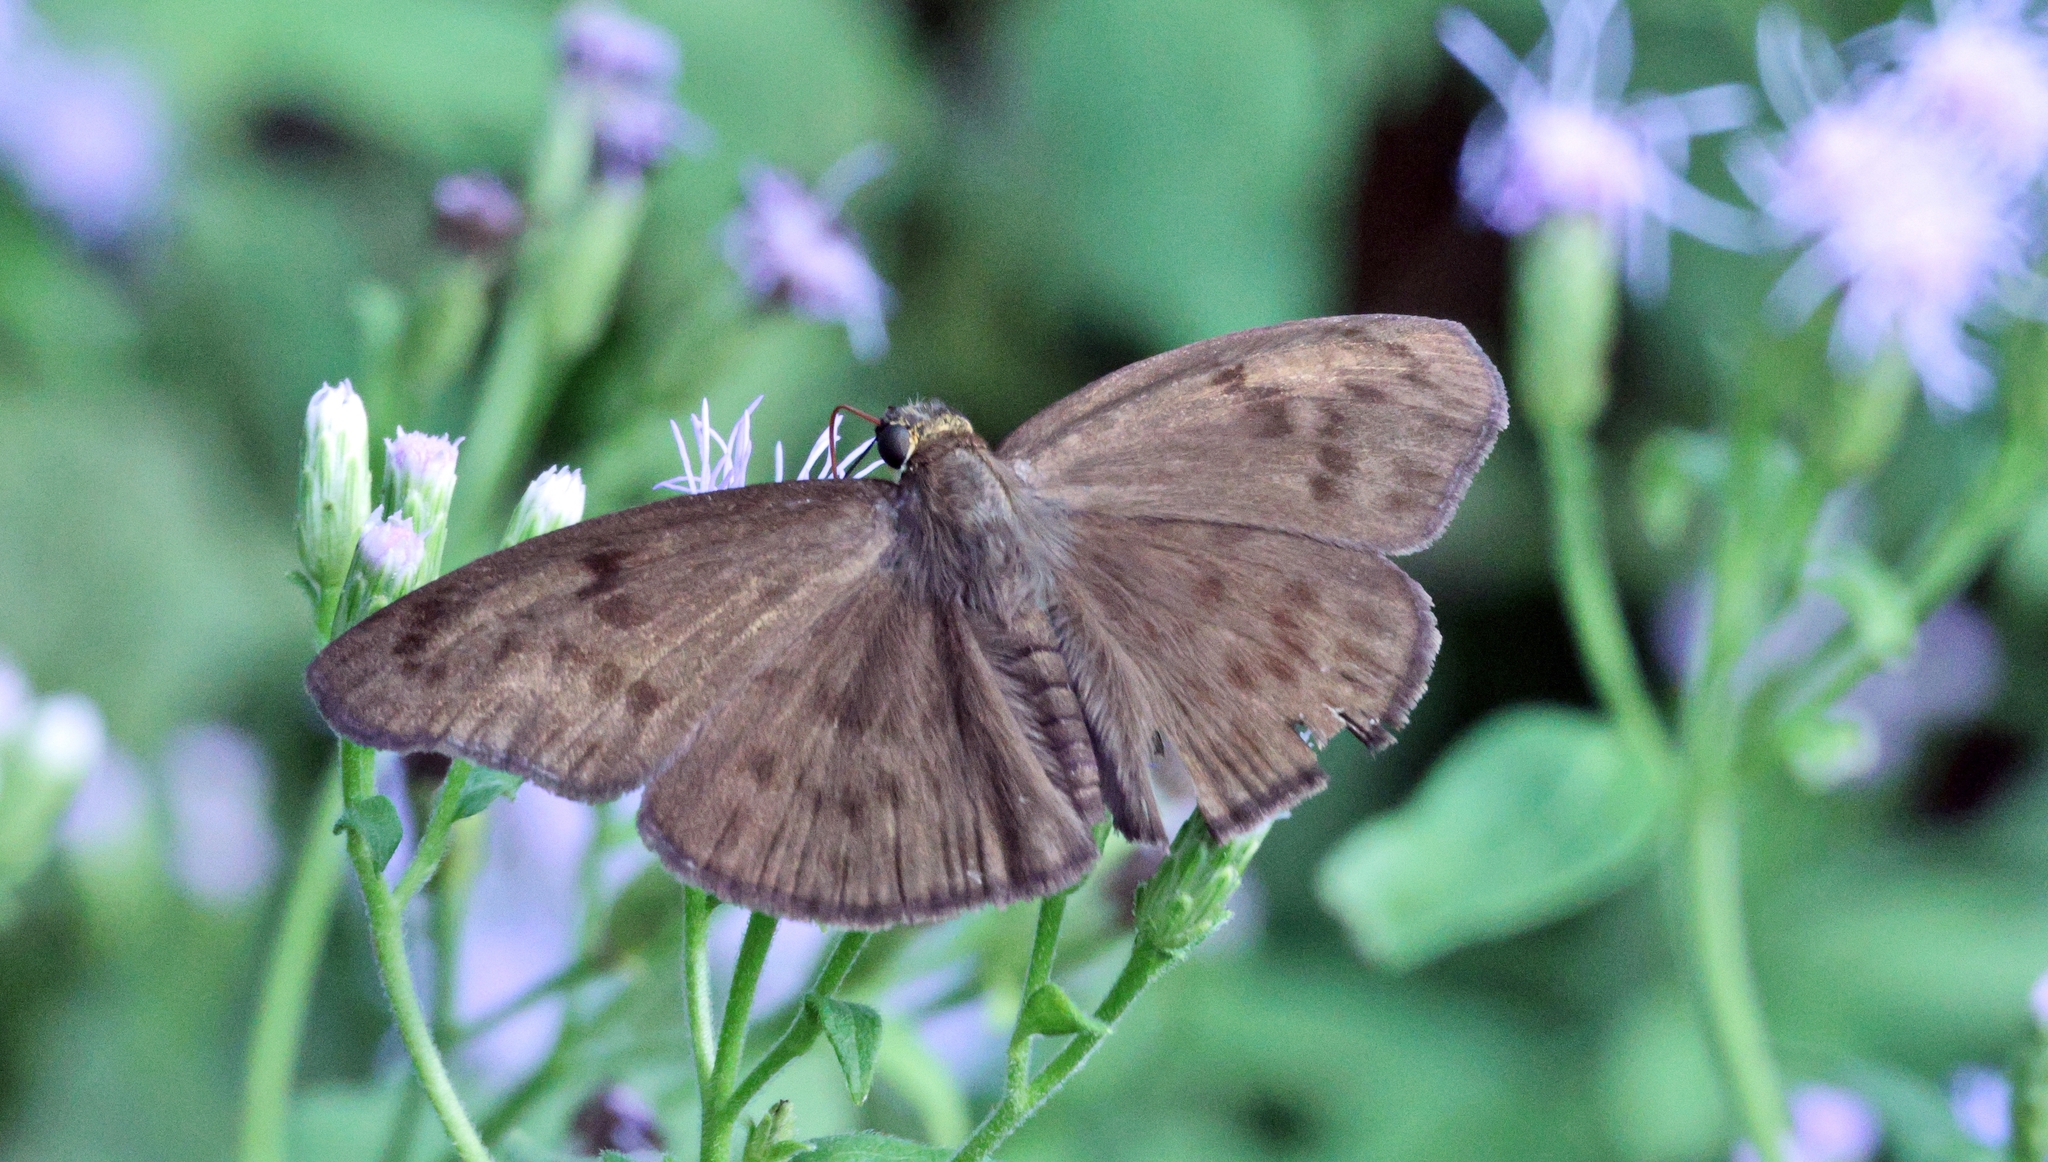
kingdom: Animalia
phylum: Arthropoda
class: Insecta
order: Lepidoptera
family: Hesperiidae
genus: Grais
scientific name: Grais stigmaticus
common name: Hermit skipper
